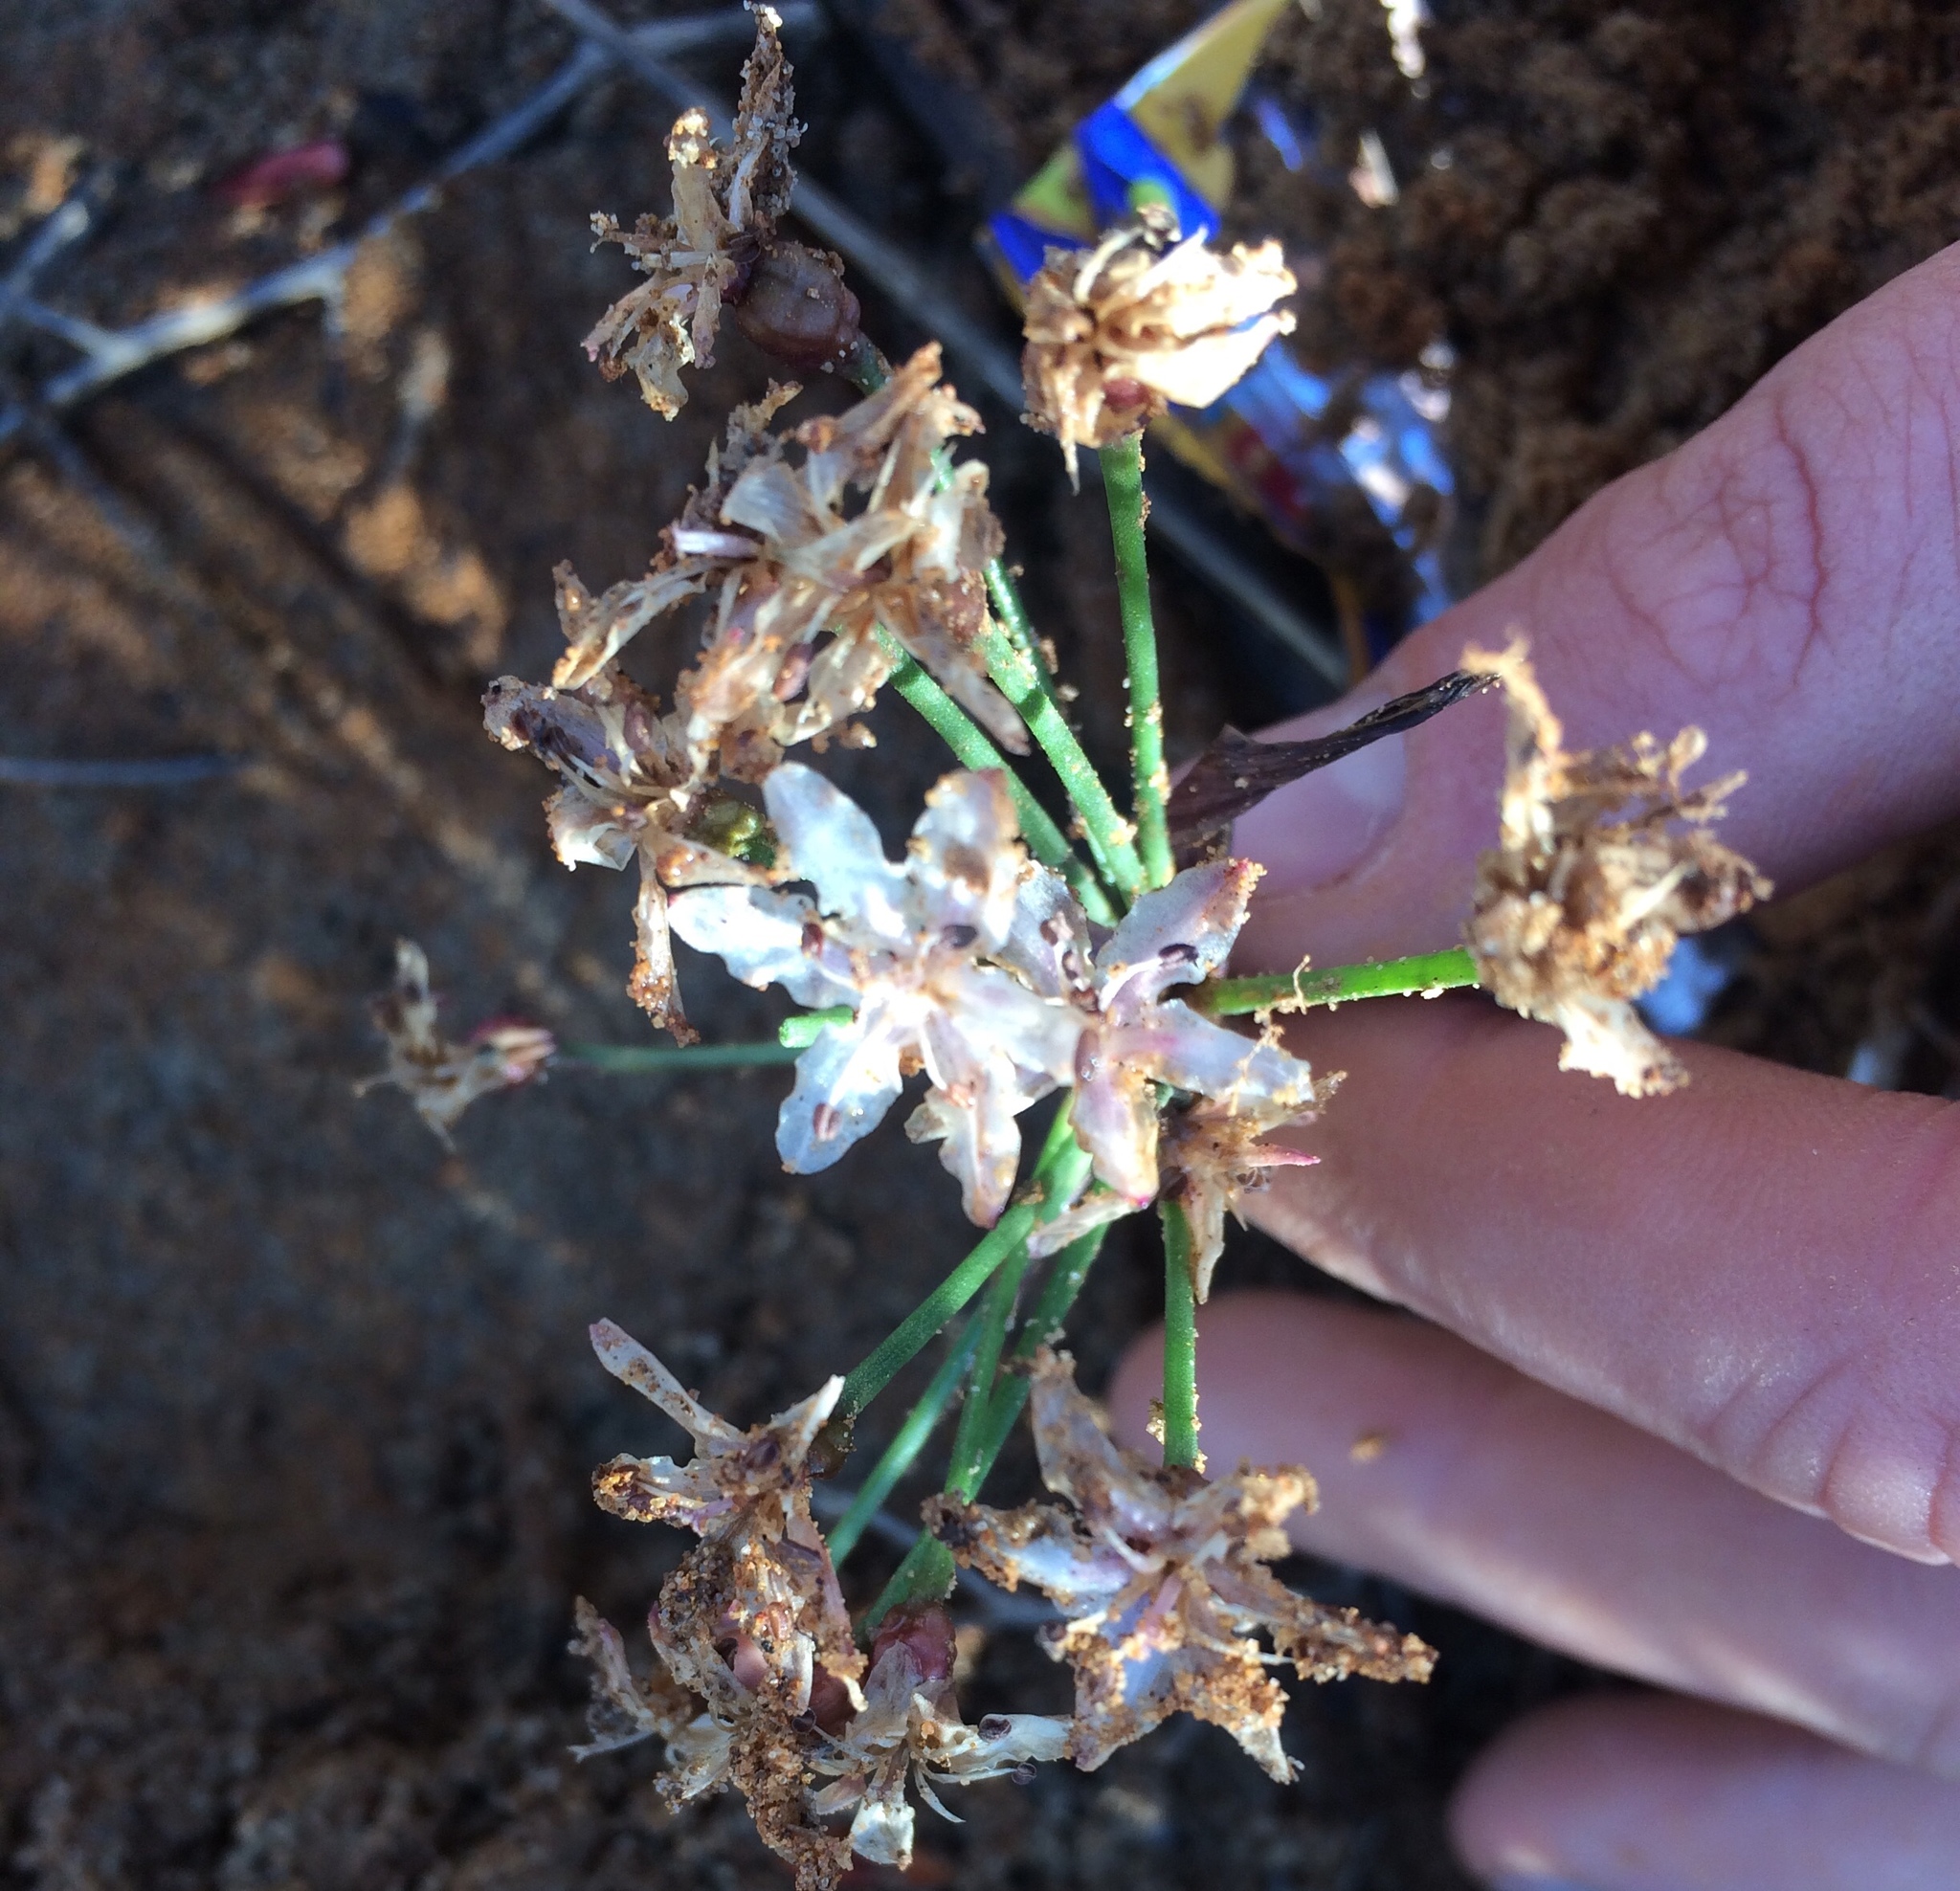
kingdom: Plantae
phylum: Tracheophyta
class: Liliopsida
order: Asparagales
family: Amaryllidaceae
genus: Hessea
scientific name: Hessea cinnamomea
